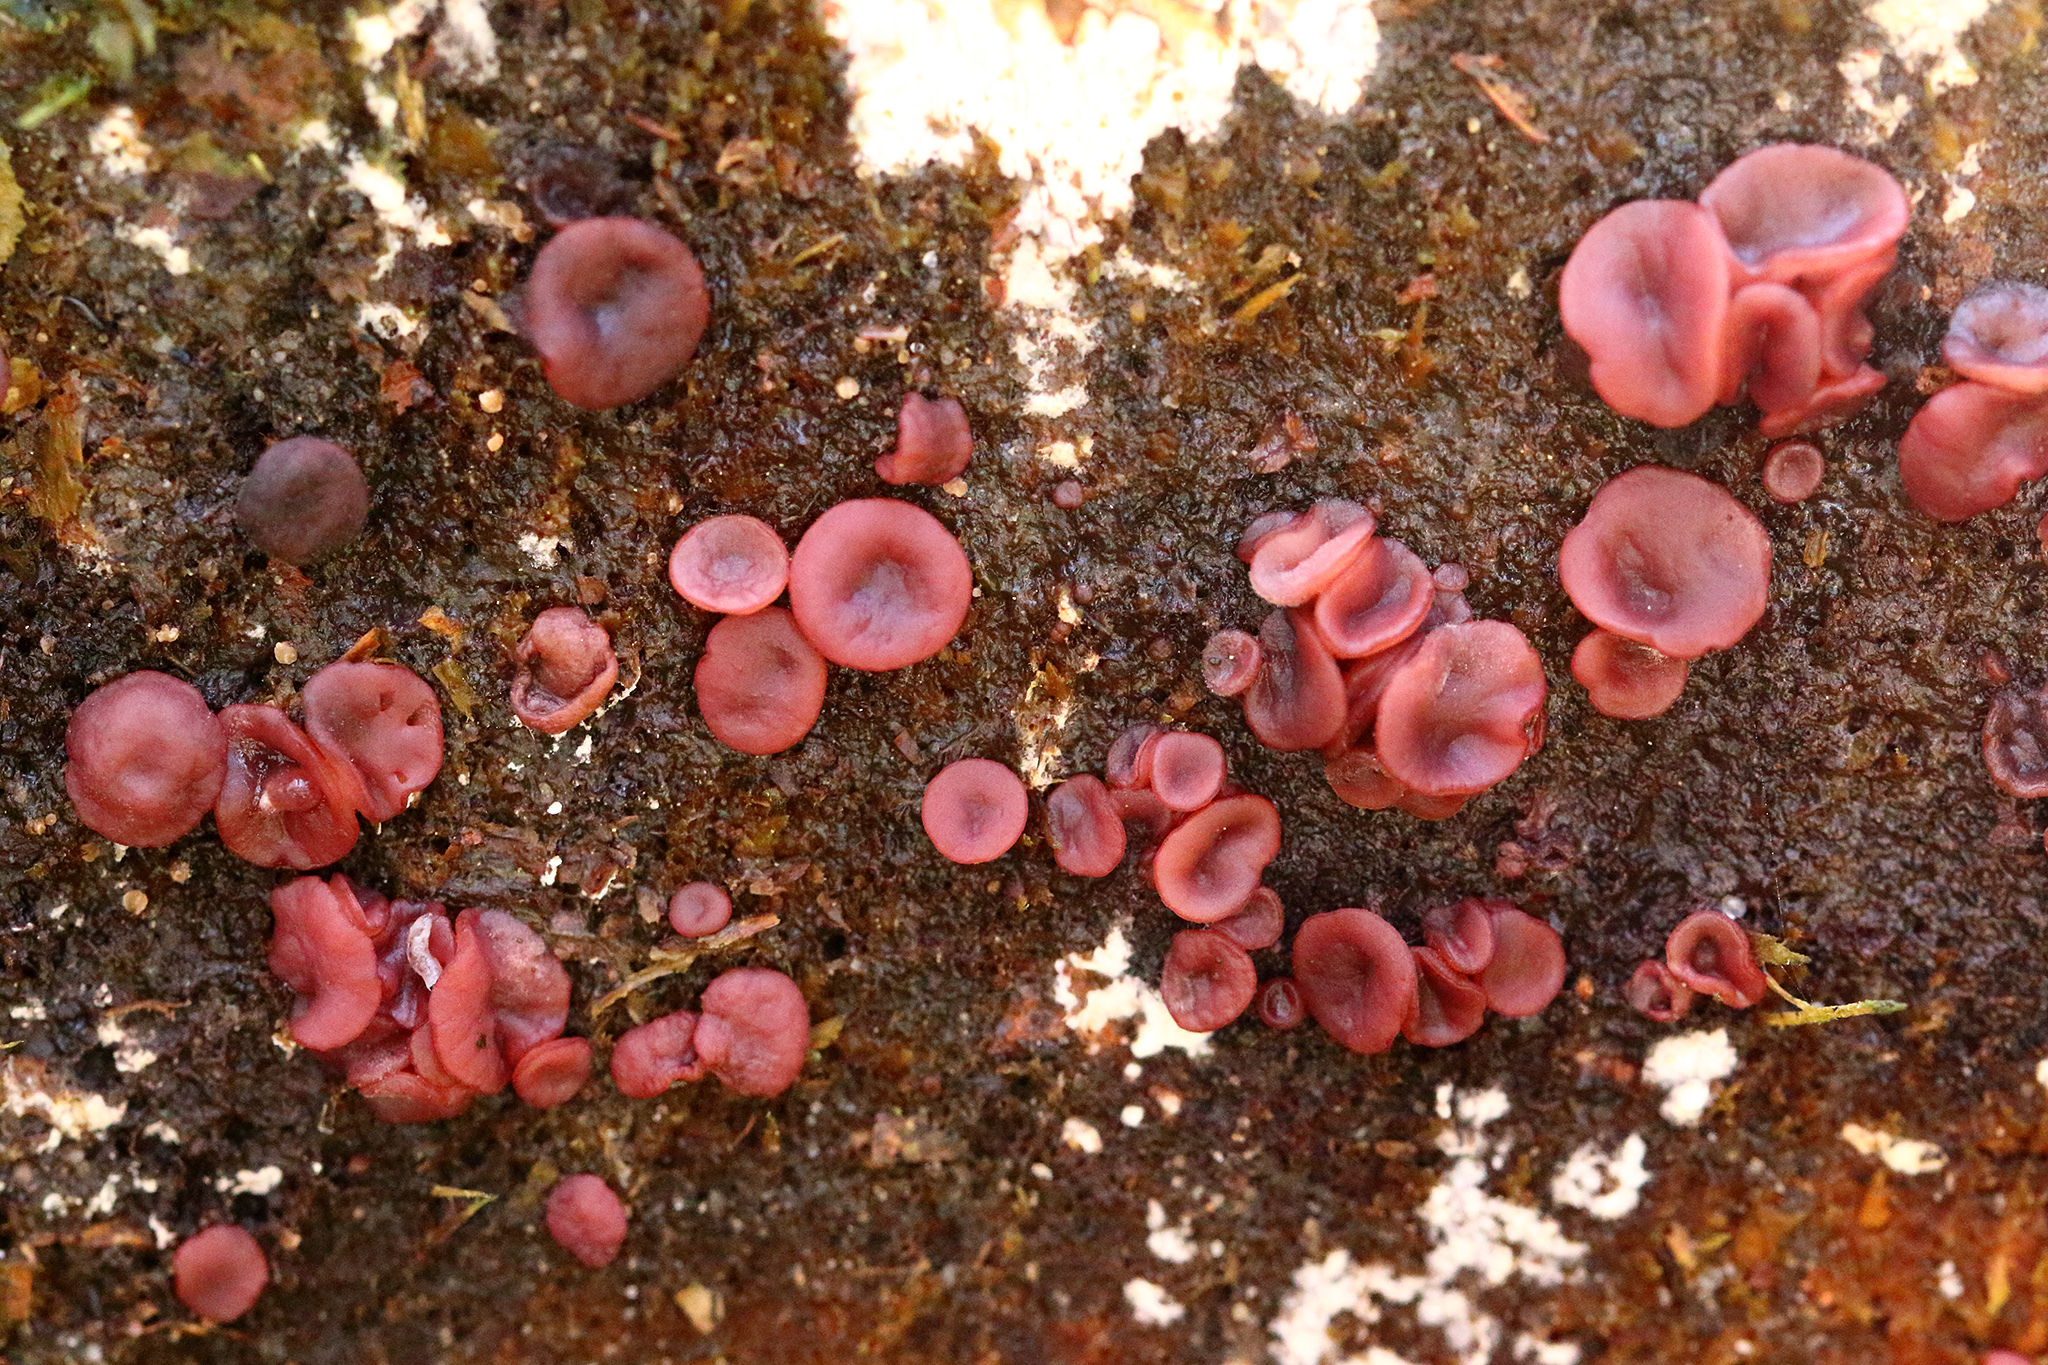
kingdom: Fungi
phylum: Ascomycota
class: Leotiomycetes
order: Helotiales
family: Gelatinodiscaceae
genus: Ascocoryne
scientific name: Ascocoryne sarcoides
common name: Purple jellydisc
